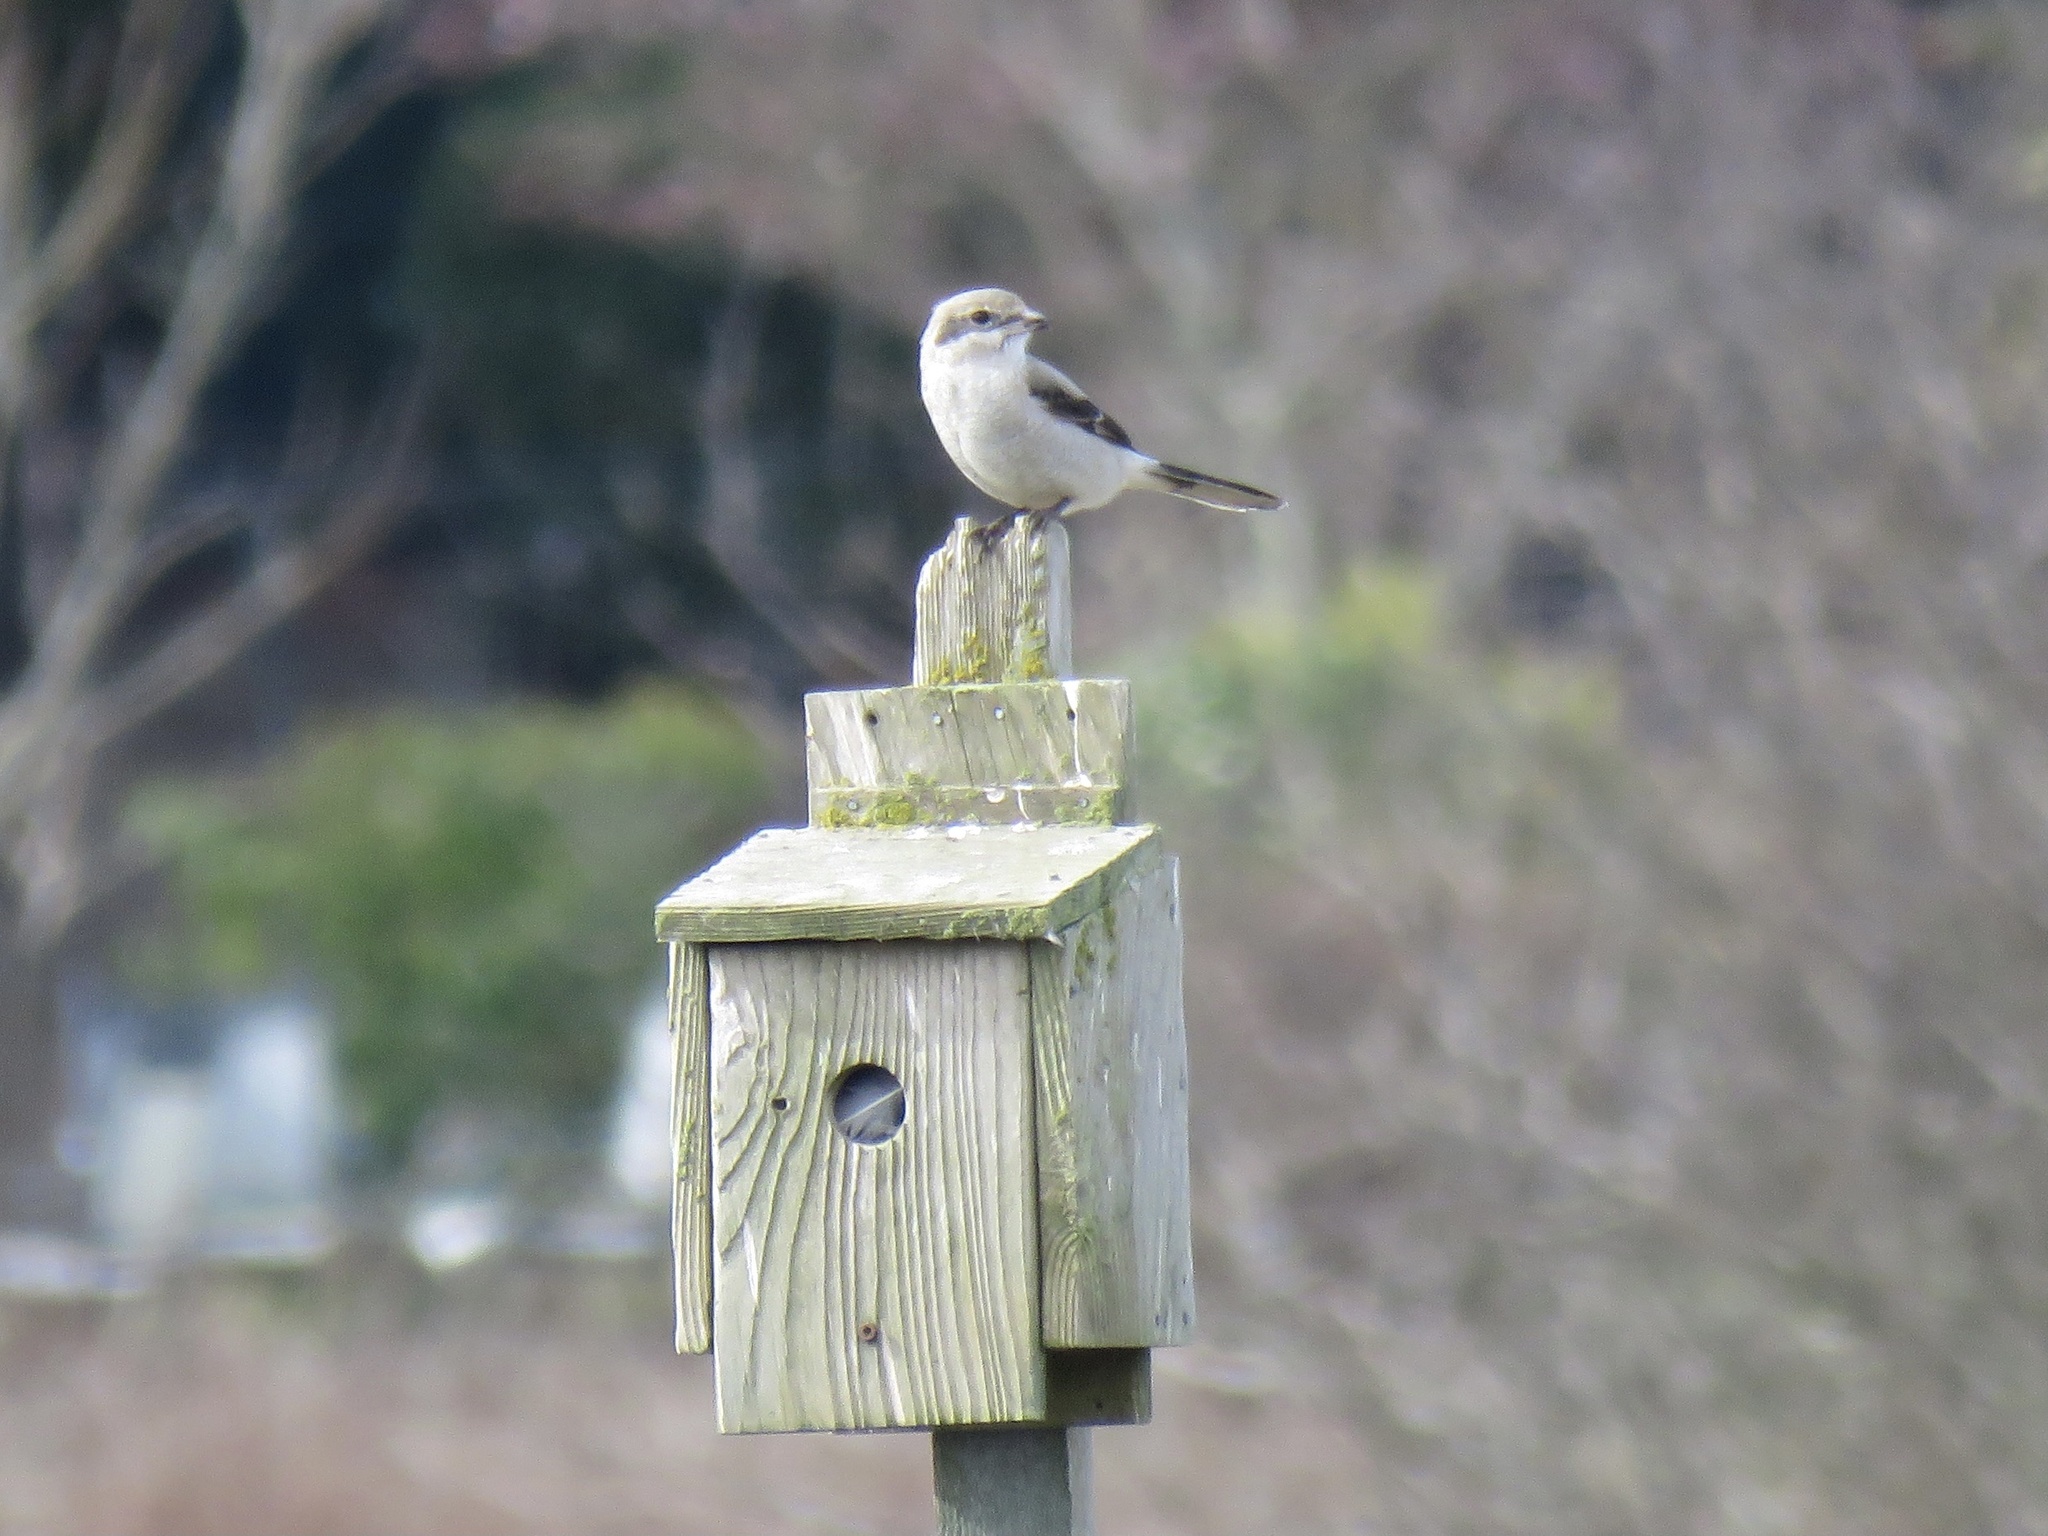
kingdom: Animalia
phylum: Chordata
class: Aves
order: Passeriformes
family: Laniidae
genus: Lanius
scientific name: Lanius borealis
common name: Northern shrike
